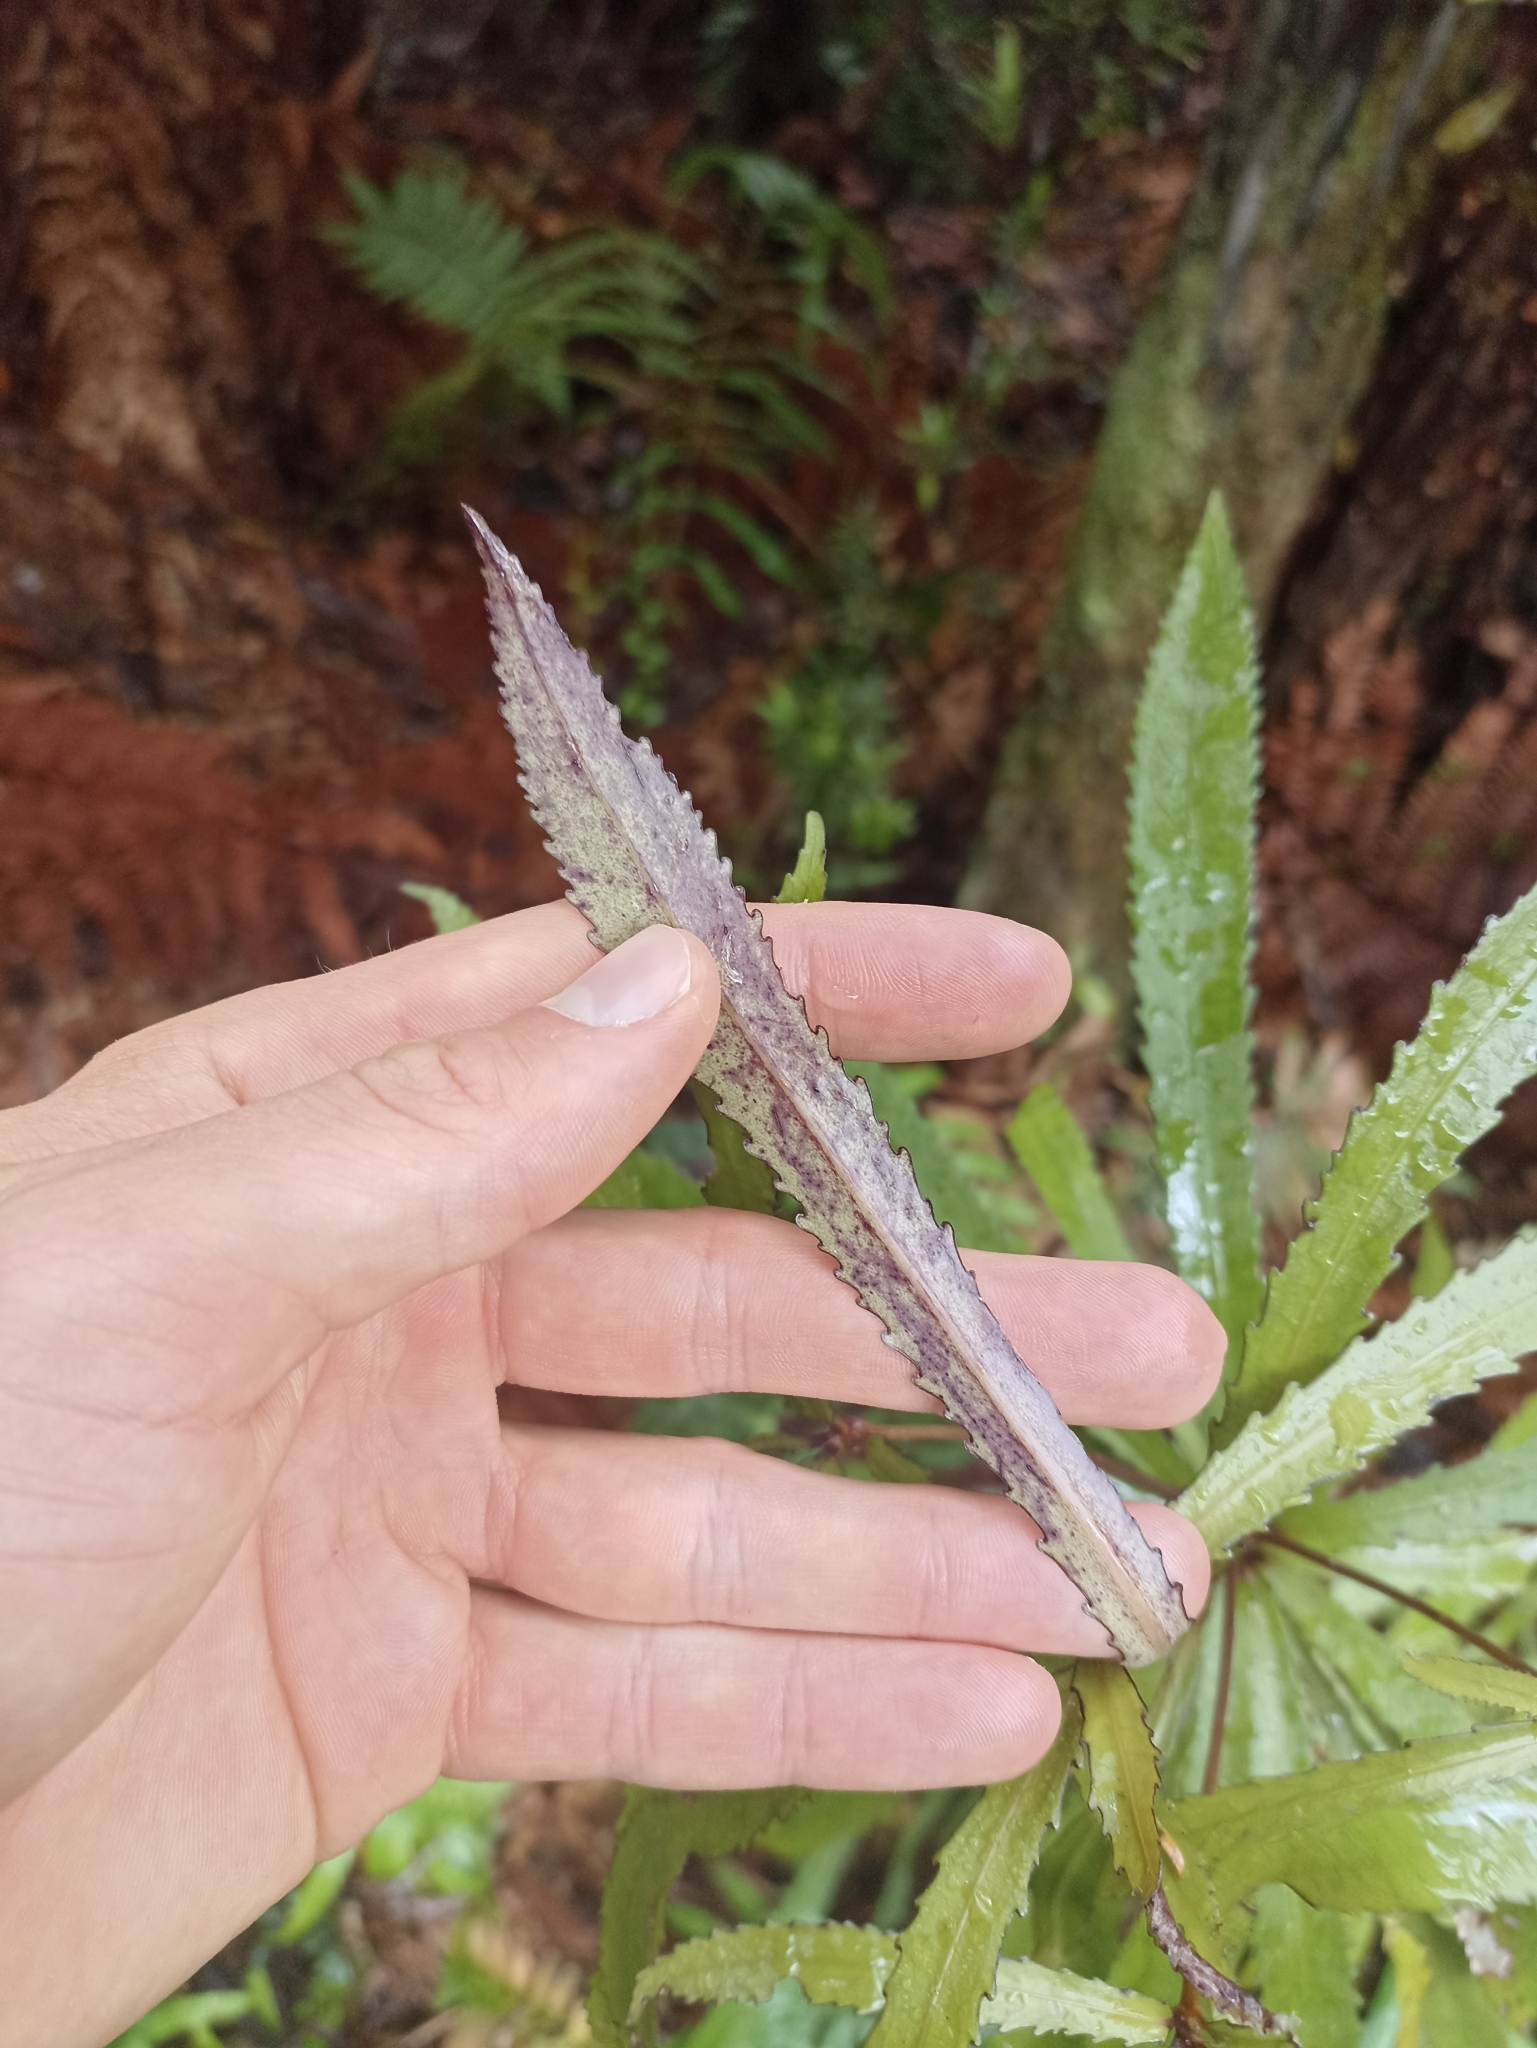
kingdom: Plantae
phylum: Tracheophyta
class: Magnoliopsida
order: Crossosomatales
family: Ixerbaceae
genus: Ixerba
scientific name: Ixerba brexioides
